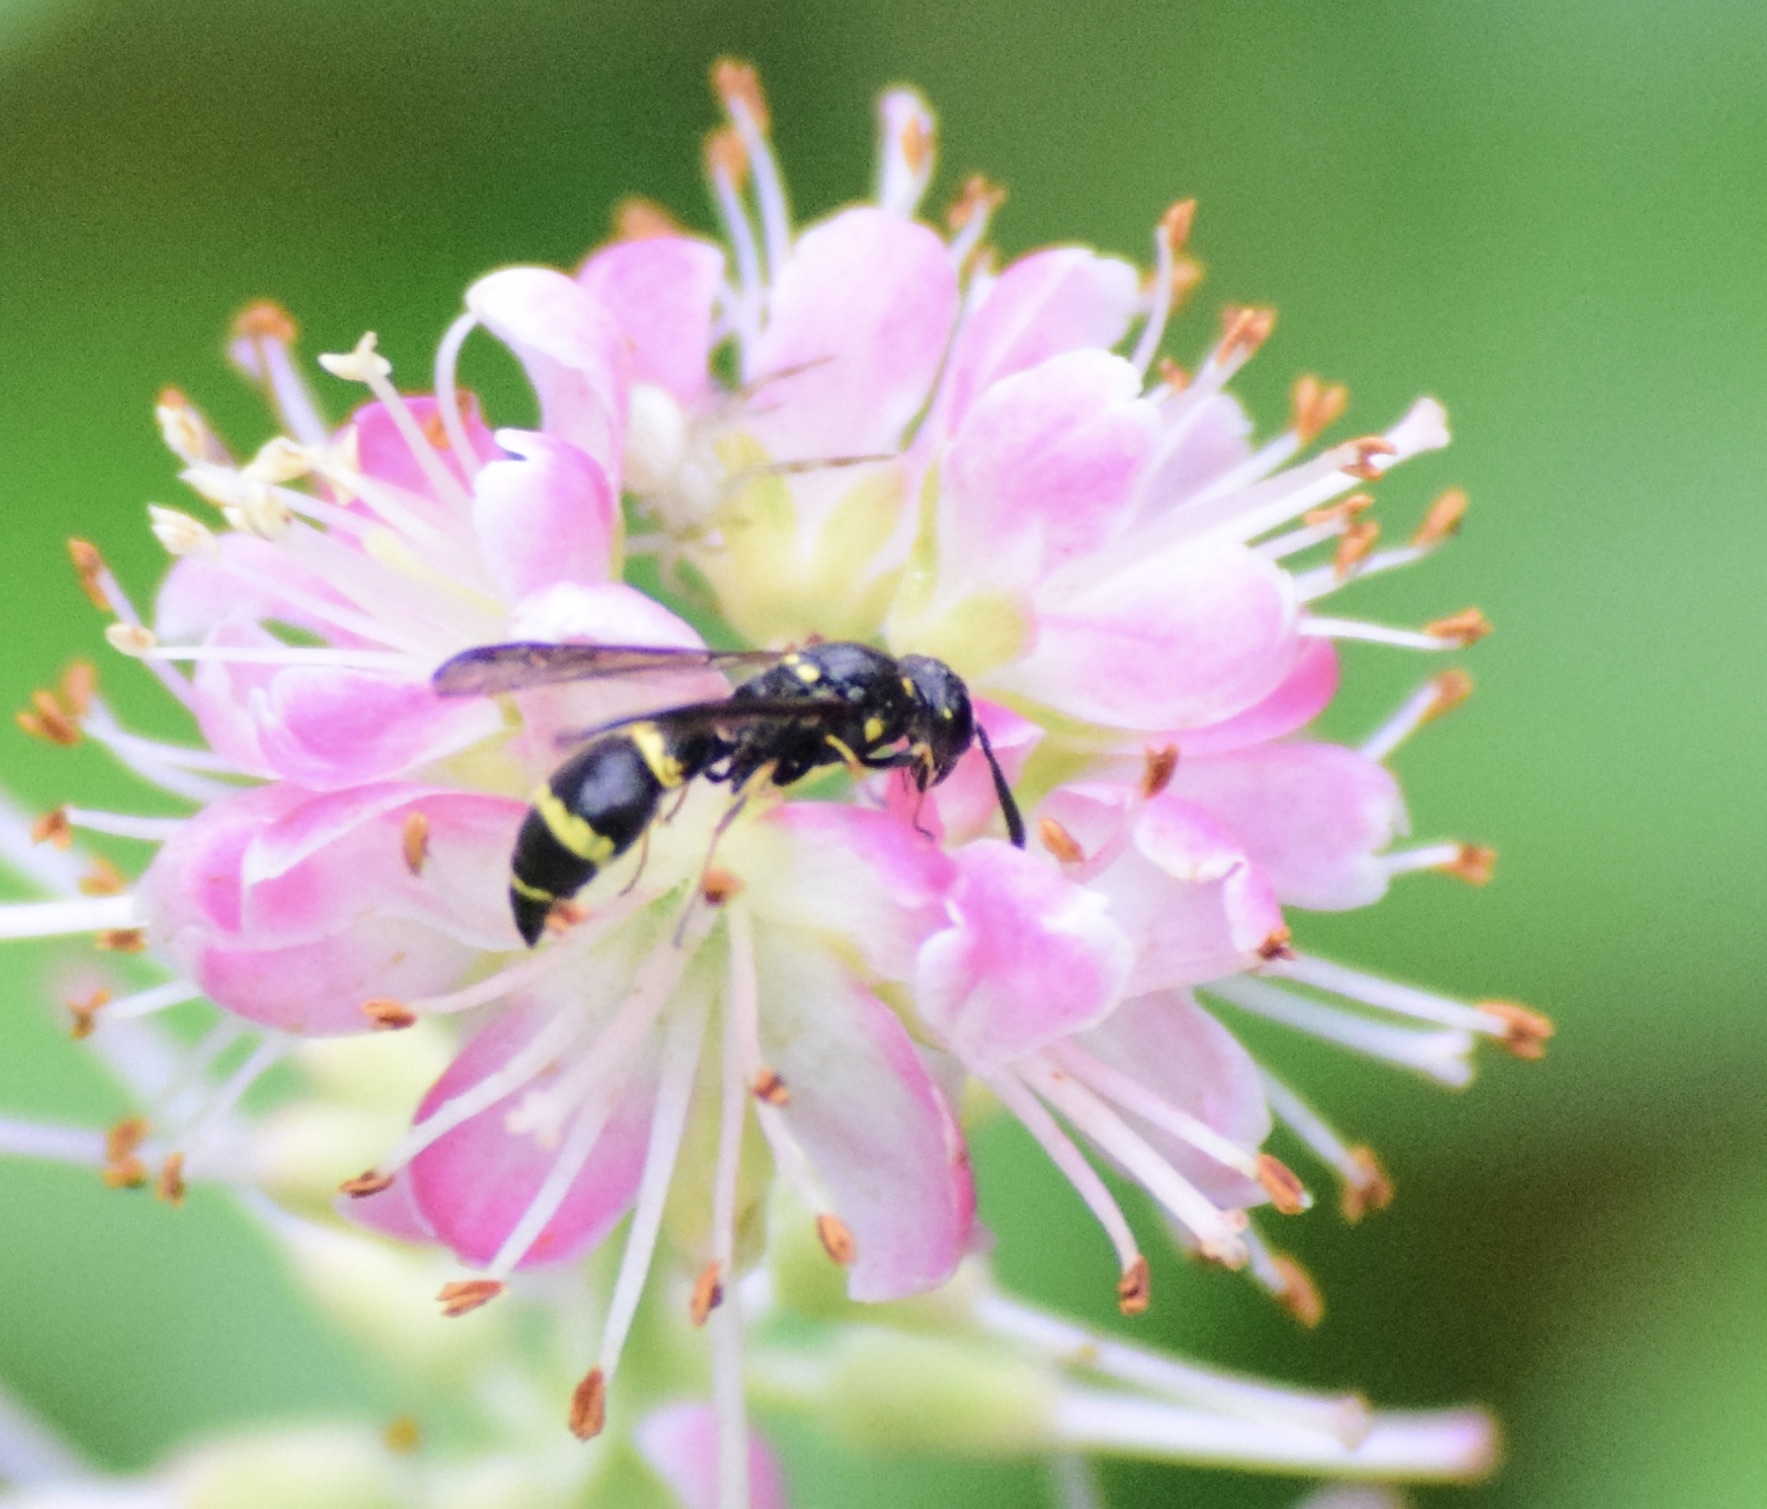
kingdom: Animalia
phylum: Arthropoda
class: Insecta
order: Hymenoptera
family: Eumenidae
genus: Symmorphus
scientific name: Symmorphus
